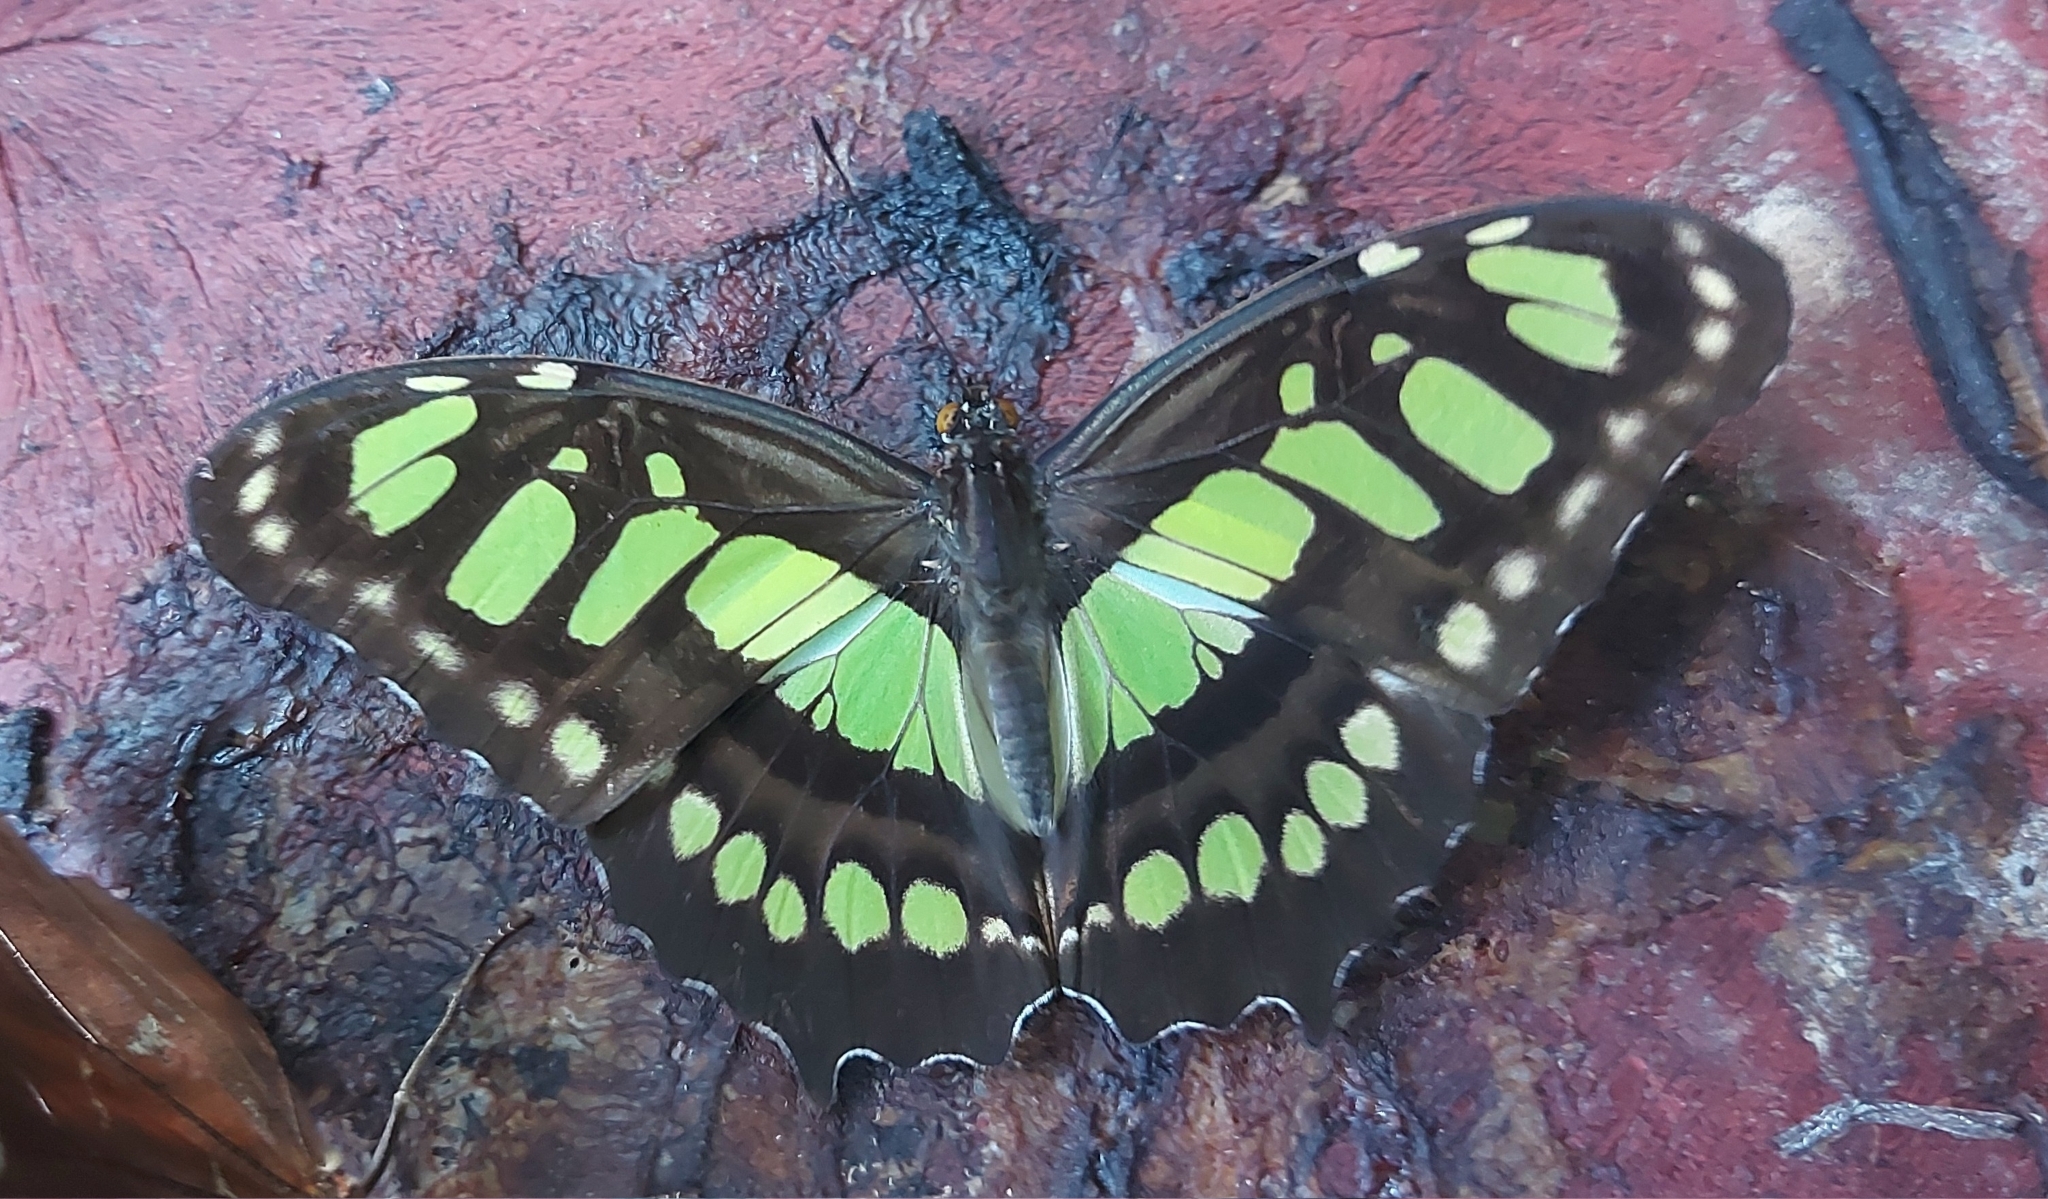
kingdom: Animalia
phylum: Arthropoda
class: Insecta
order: Lepidoptera
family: Nymphalidae
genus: Siproeta
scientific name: Siproeta stelenes
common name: Malachite
